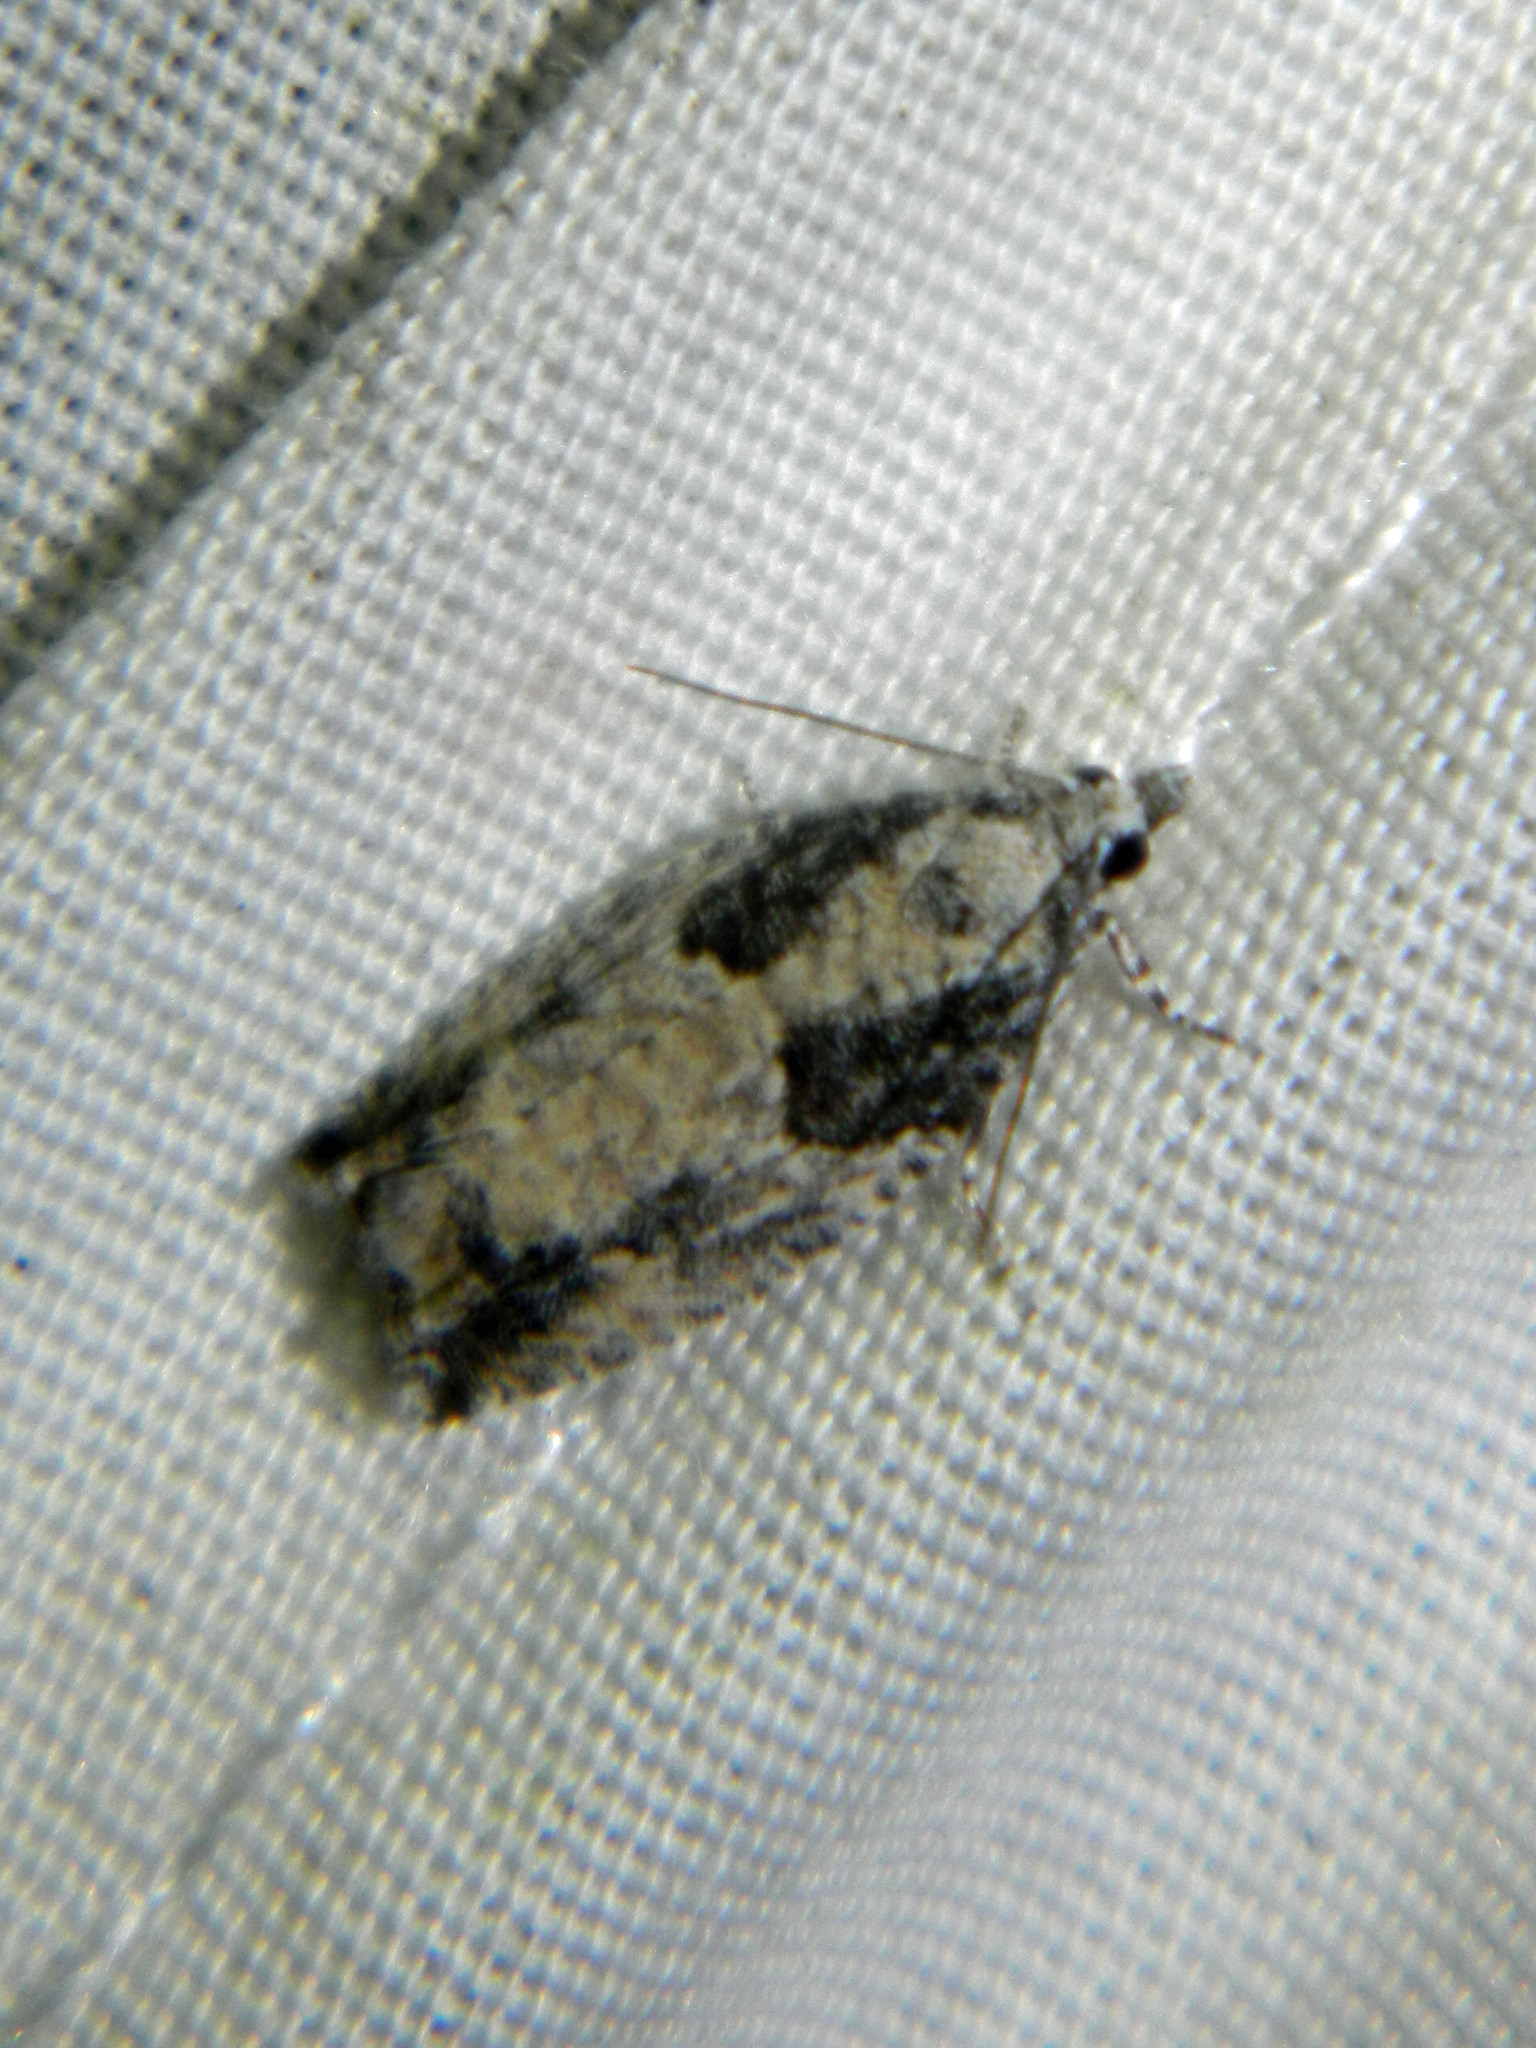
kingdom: Animalia
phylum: Arthropoda
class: Insecta
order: Lepidoptera
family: Tortricidae
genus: Epinotia
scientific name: Epinotia cinereana
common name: Grey aspen bell
